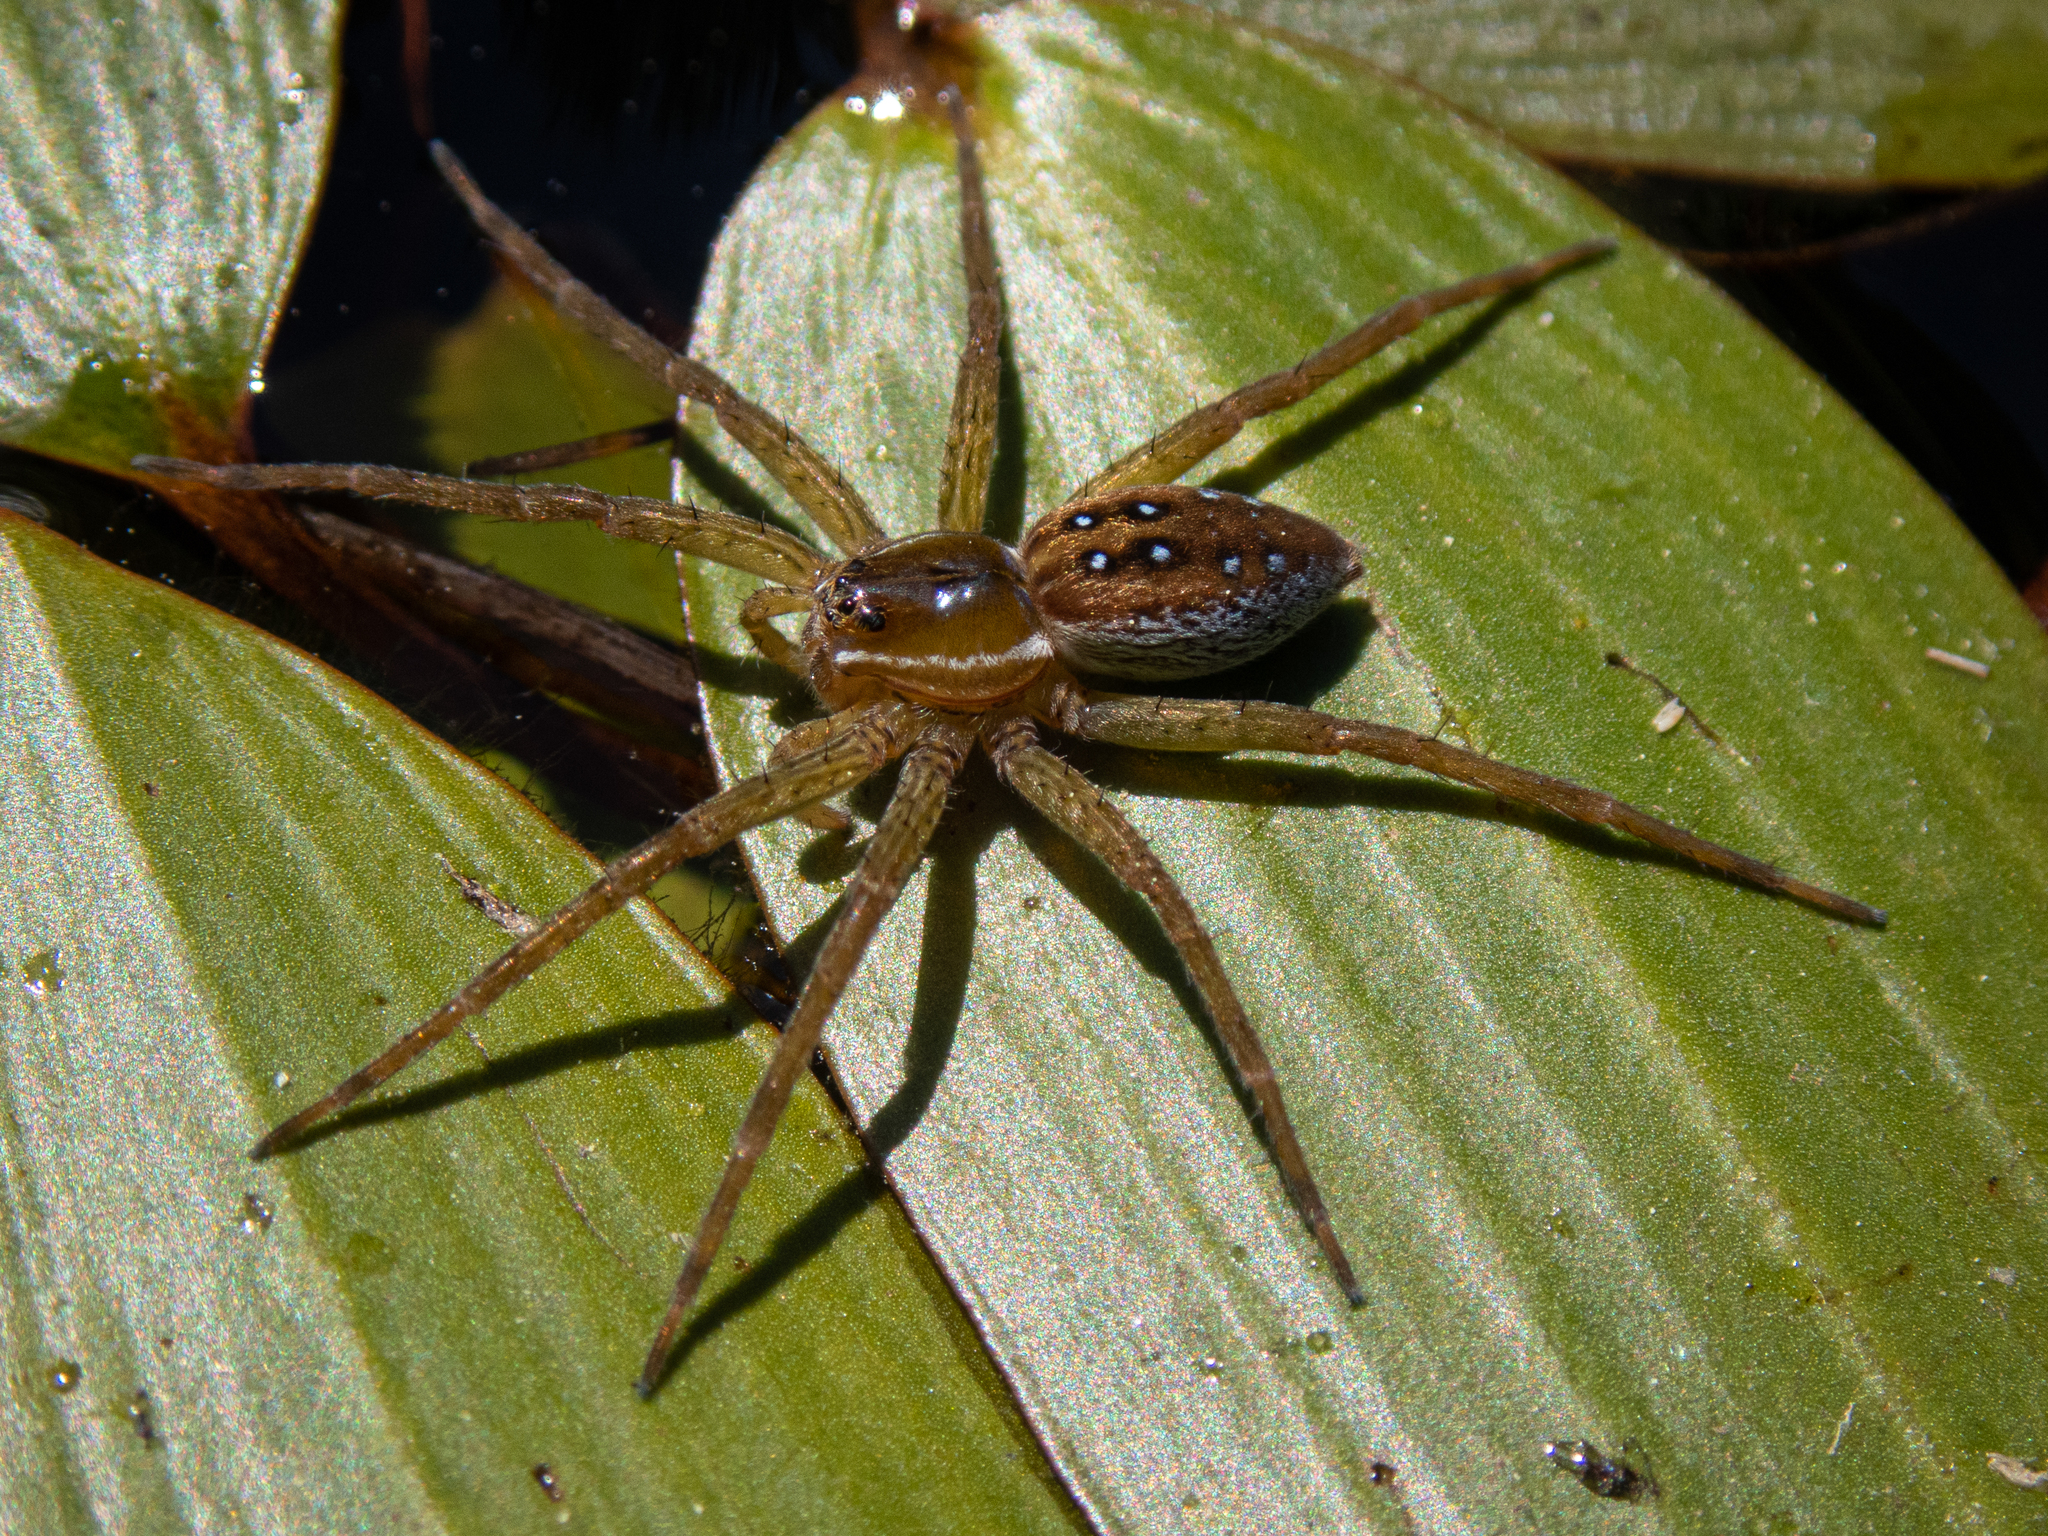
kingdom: Animalia
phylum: Arthropoda
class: Arachnida
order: Araneae
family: Pisauridae
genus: Dolomedes
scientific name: Dolomedes triton
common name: Six-spotted fishing spider
